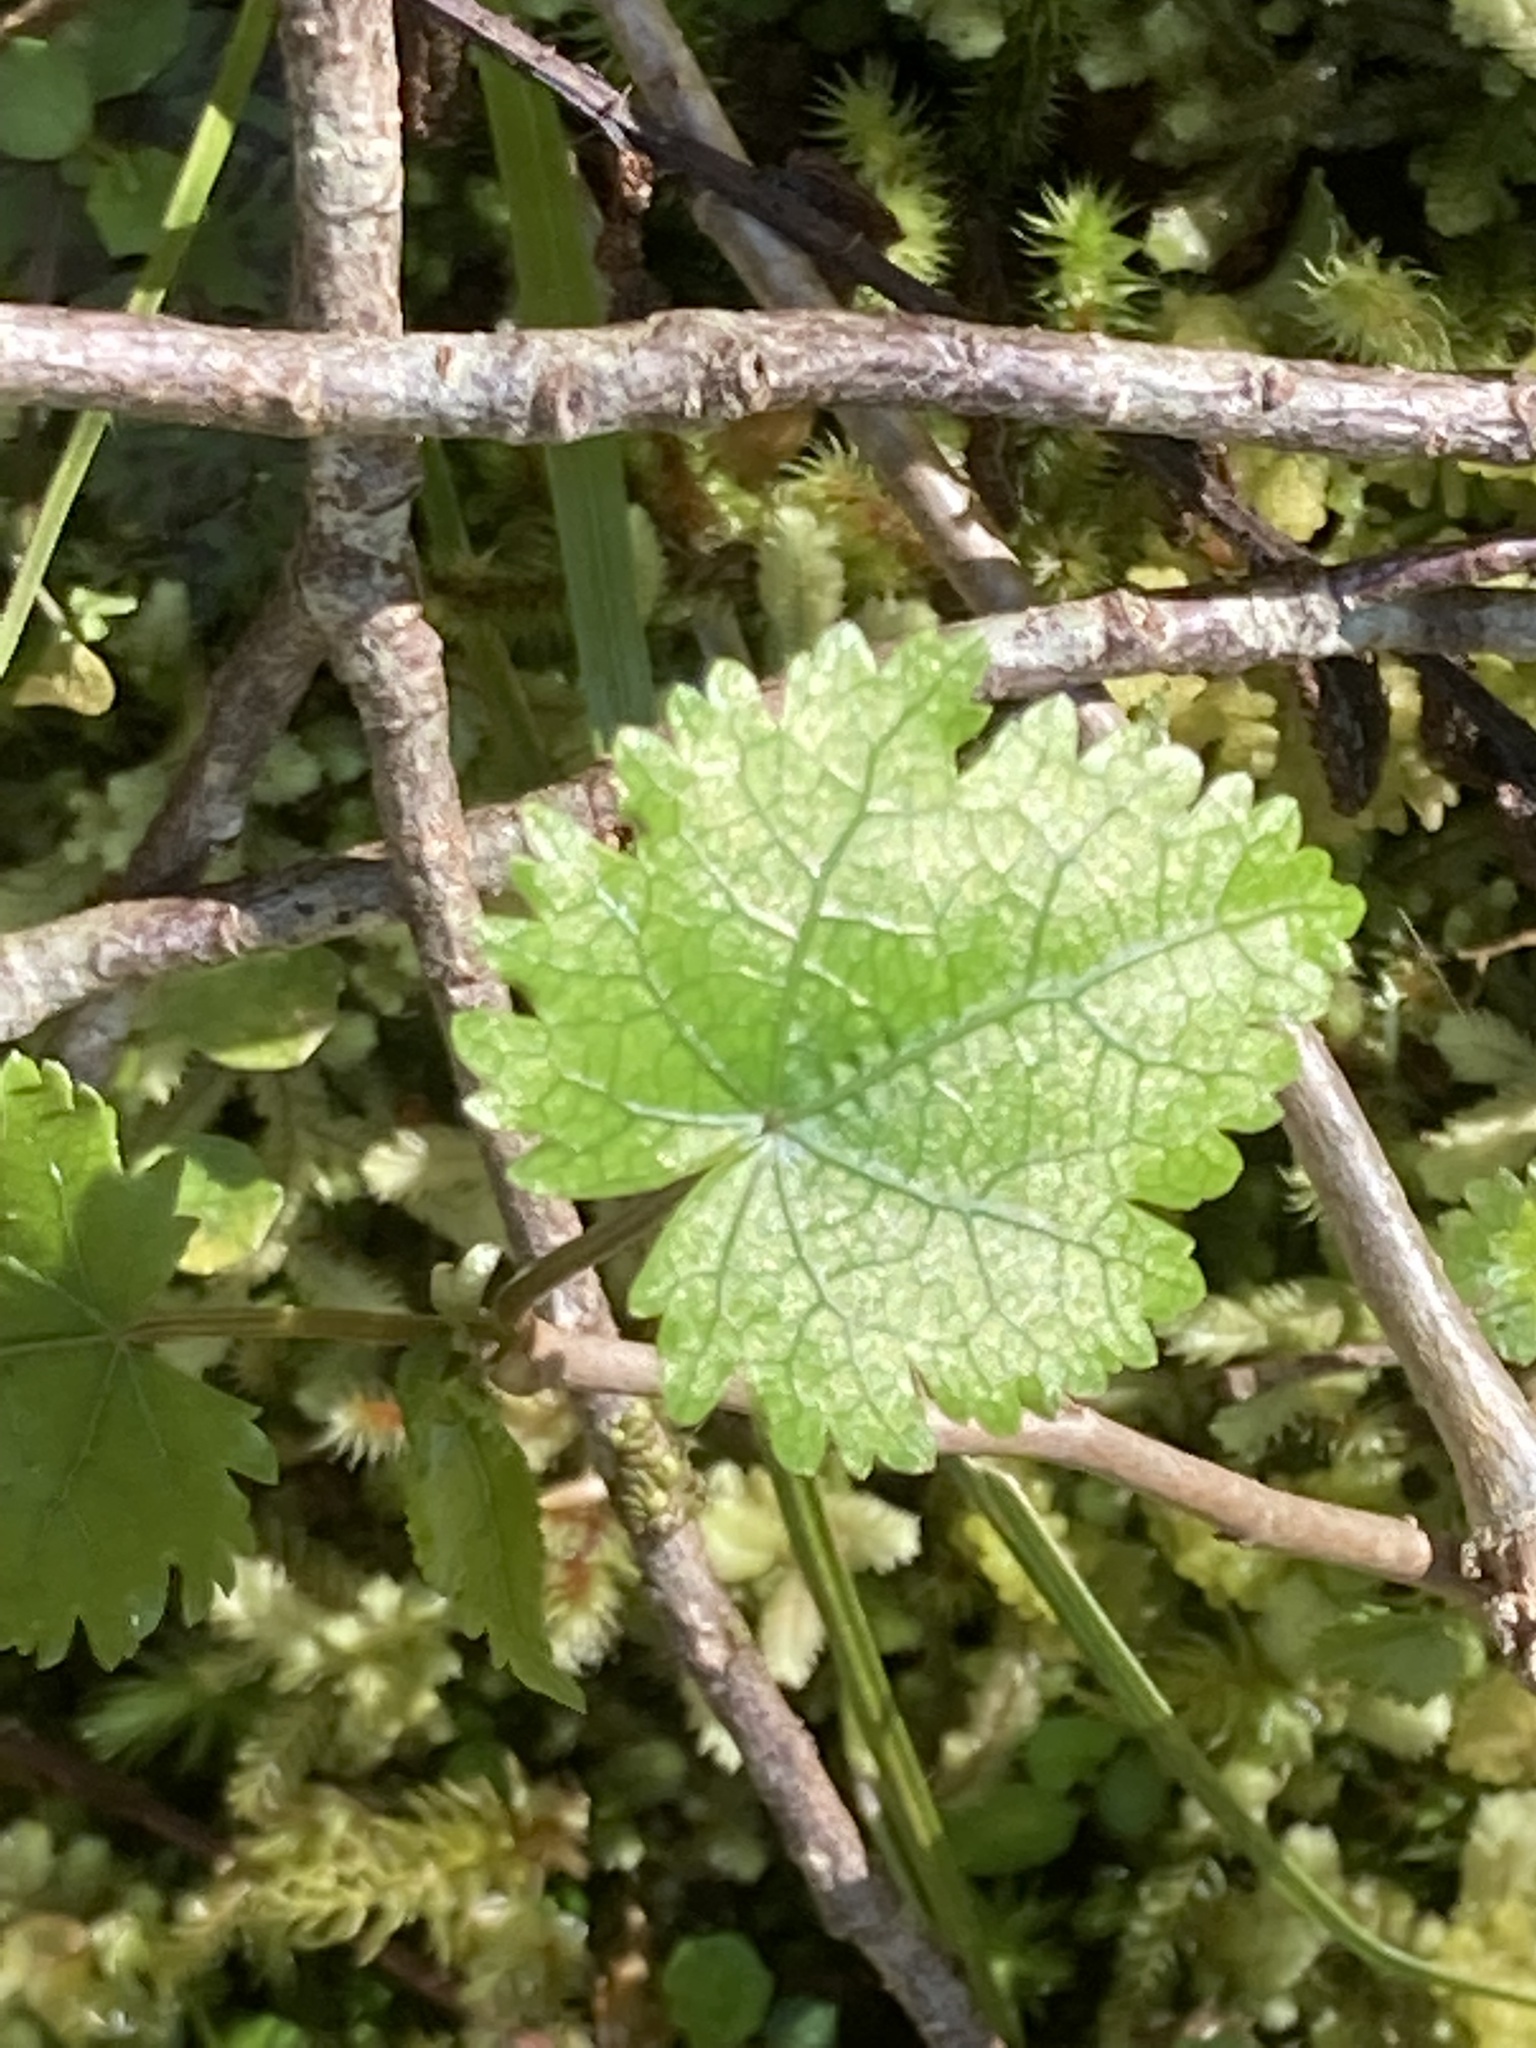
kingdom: Plantae
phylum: Tracheophyta
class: Magnoliopsida
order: Malvales
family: Malvaceae
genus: Hoheria
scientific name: Hoheria glabrata
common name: Mountain-ribbon
